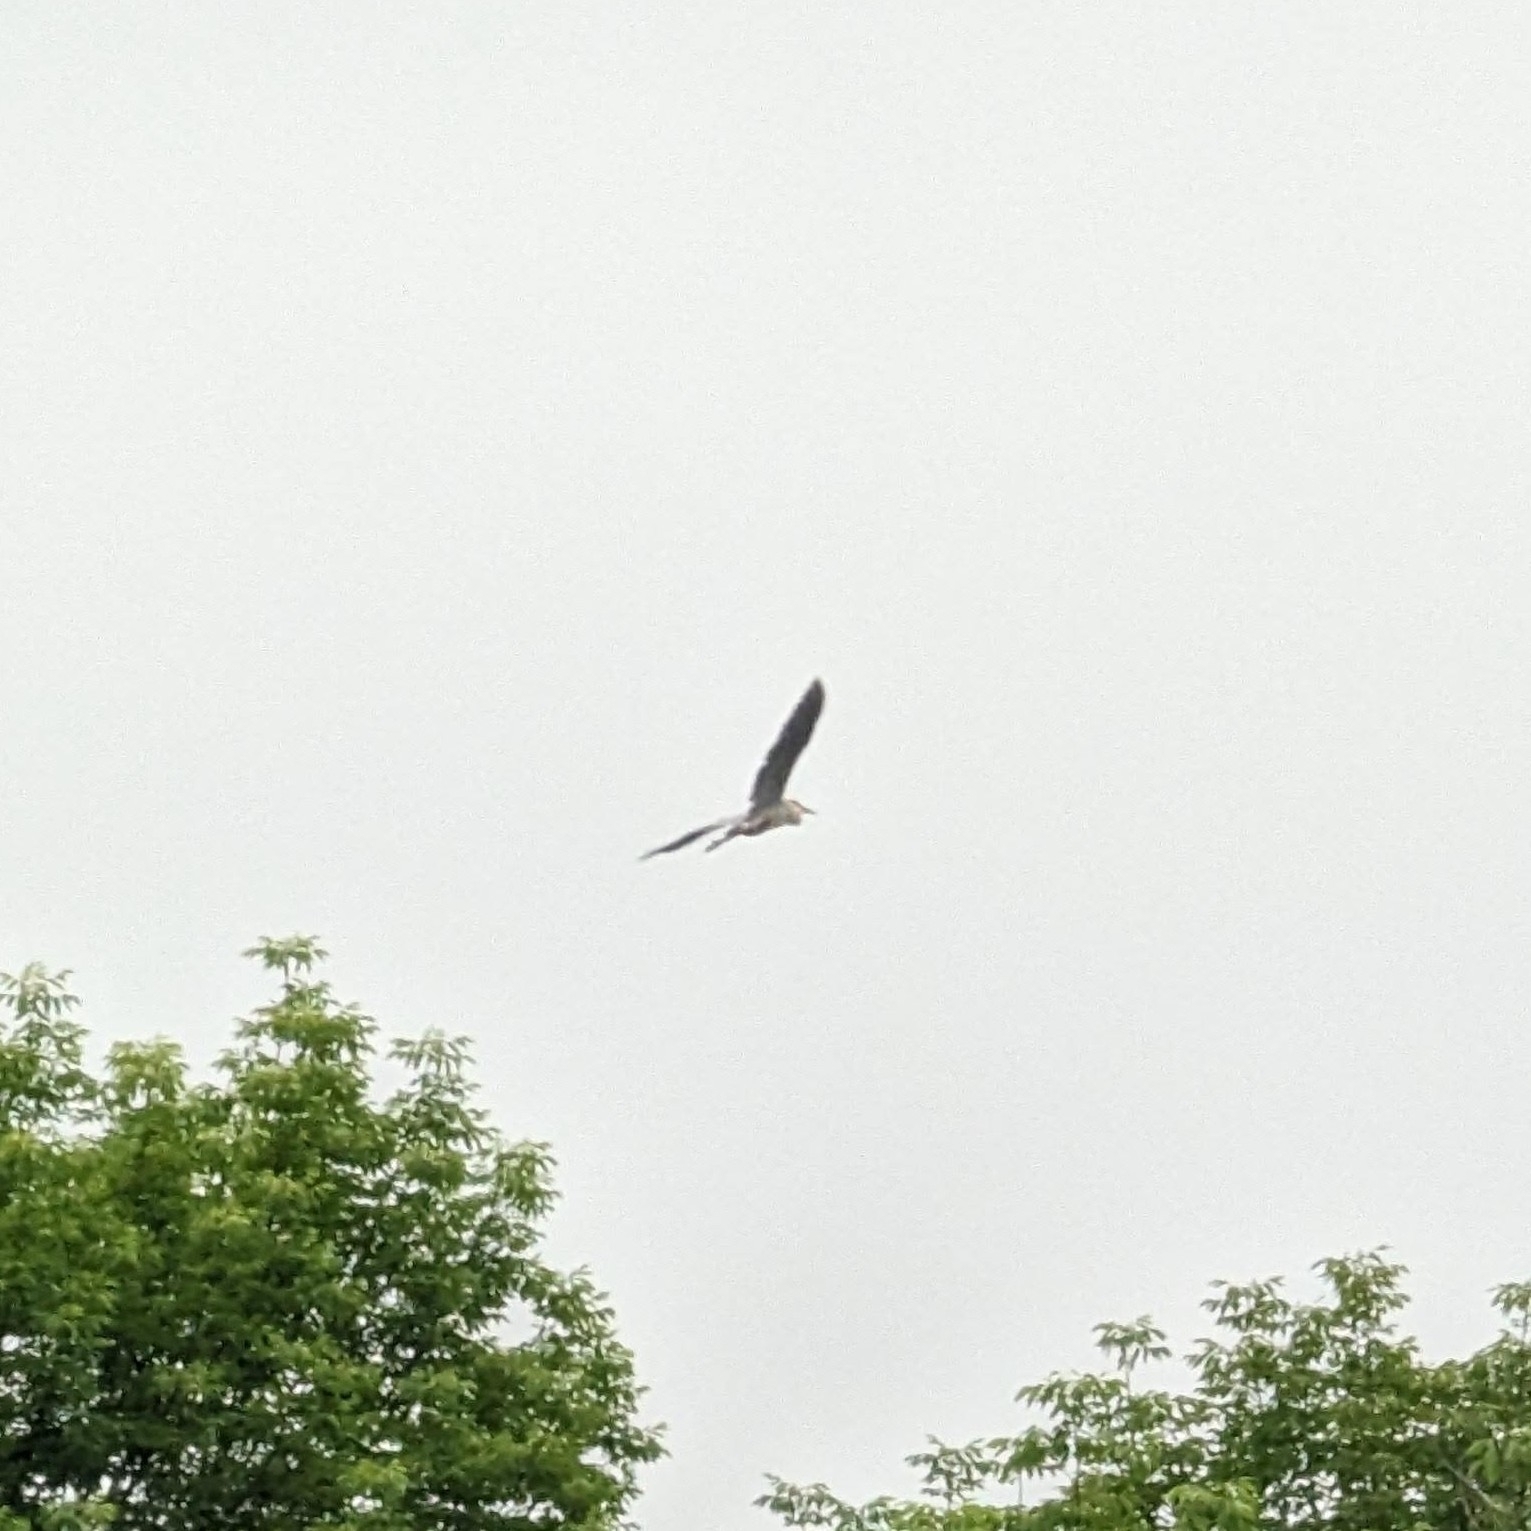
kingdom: Animalia
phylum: Chordata
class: Aves
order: Pelecaniformes
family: Ardeidae
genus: Ardea
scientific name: Ardea herodias
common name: Great blue heron
